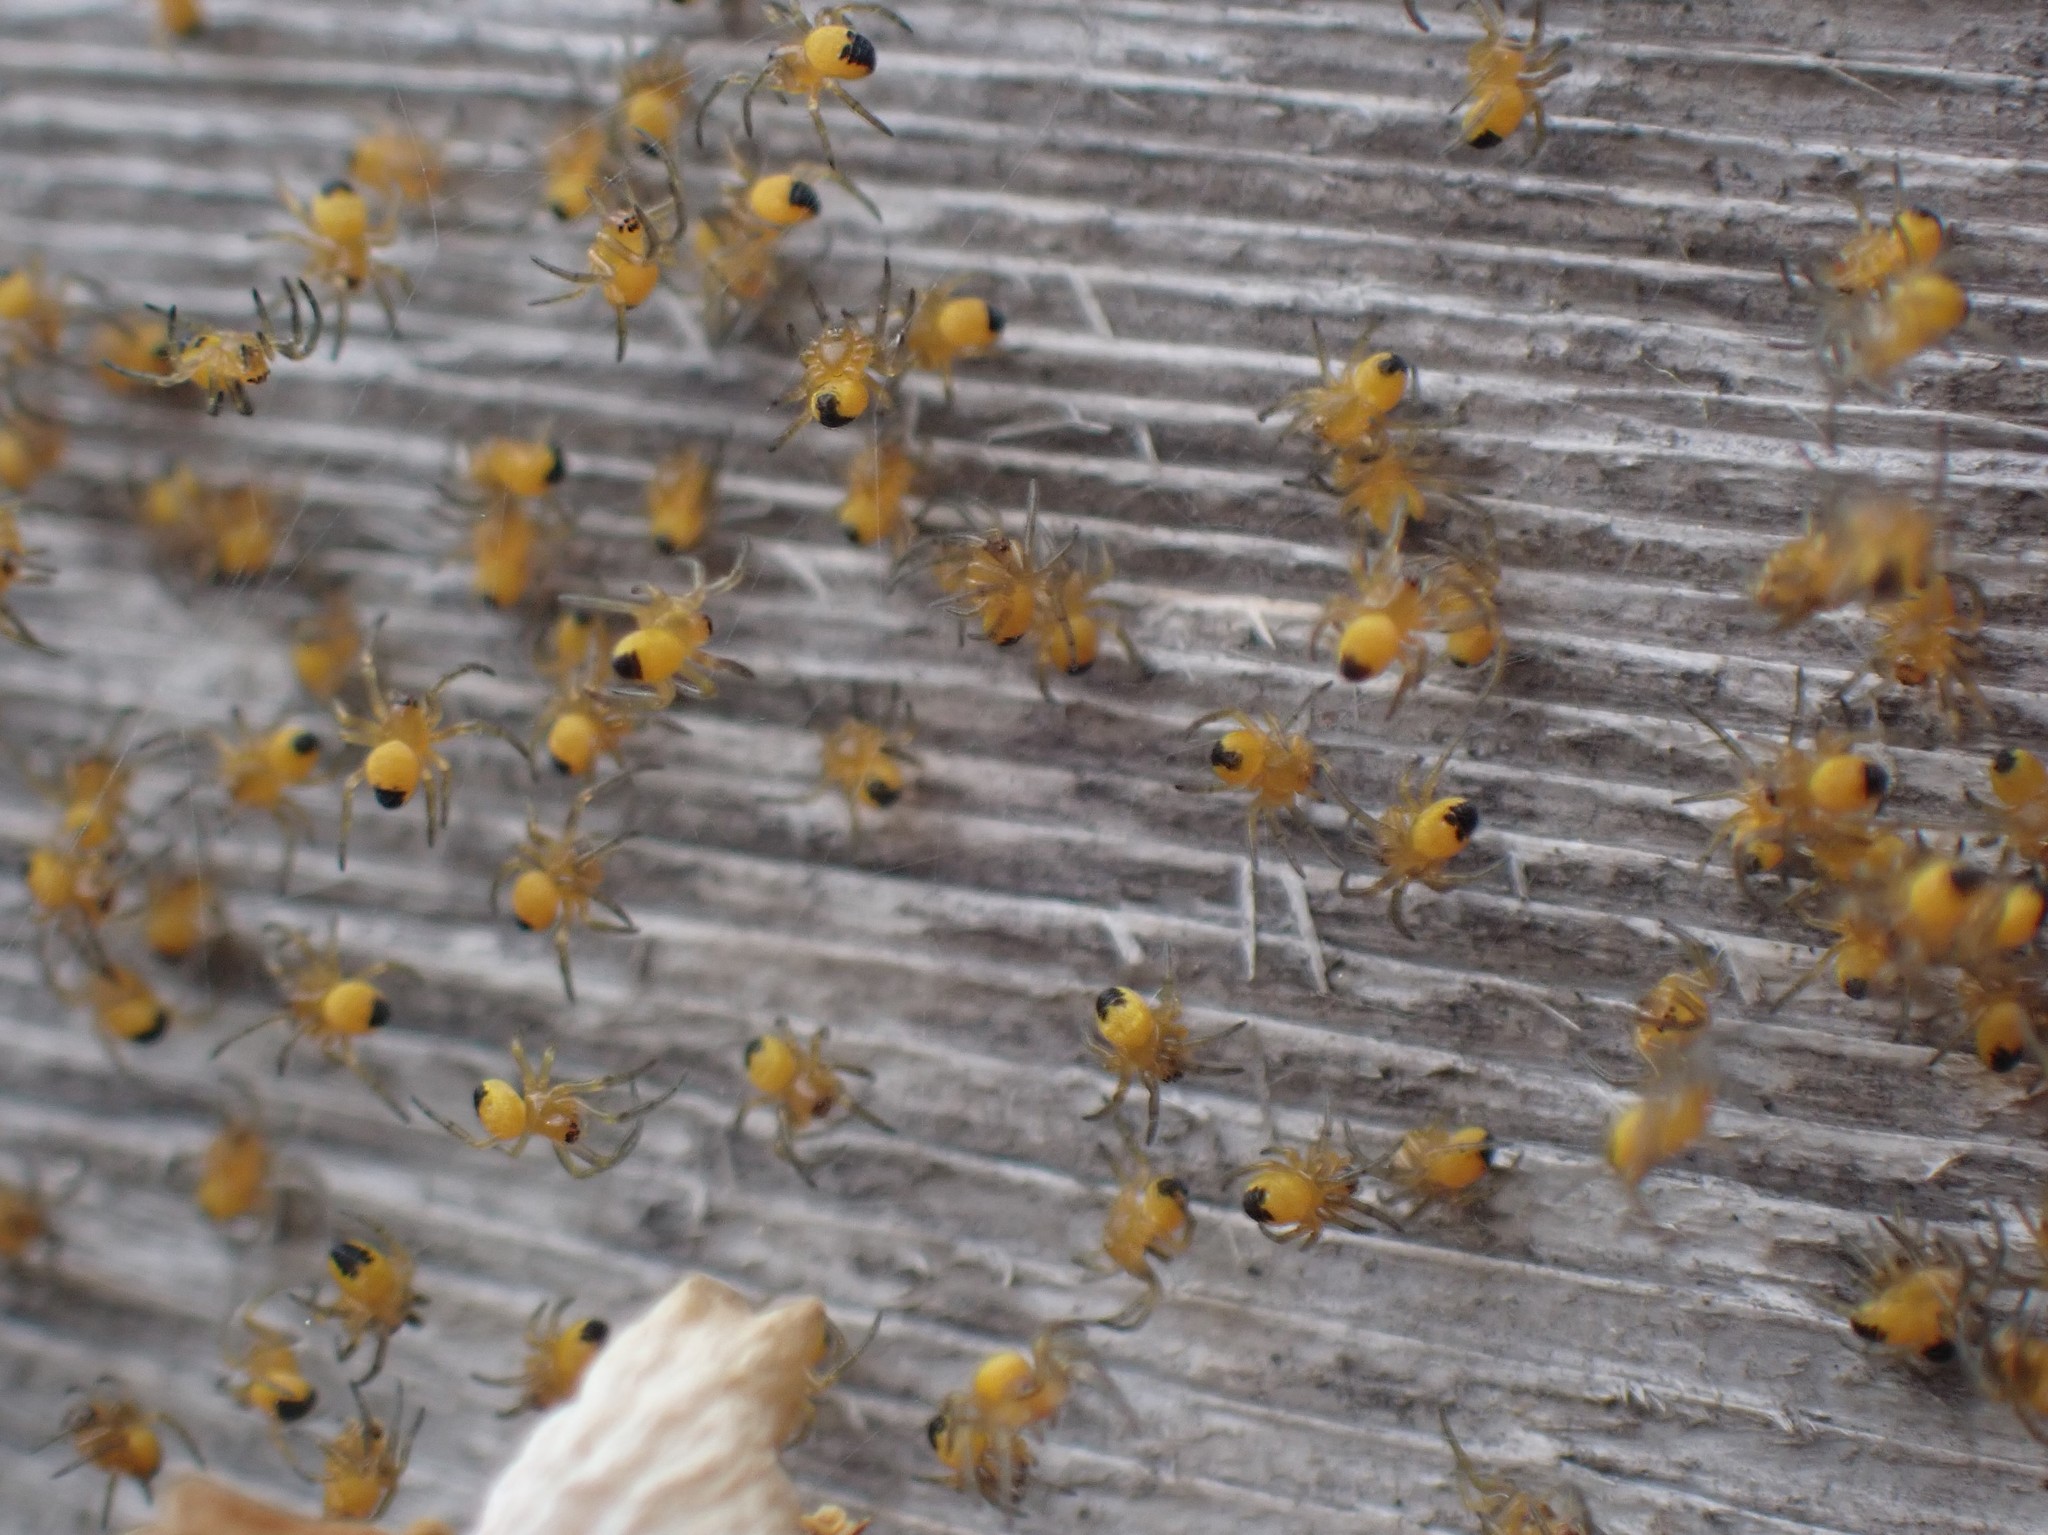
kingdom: Animalia
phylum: Arthropoda
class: Arachnida
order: Araneae
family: Araneidae
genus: Araneus
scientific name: Araneus
